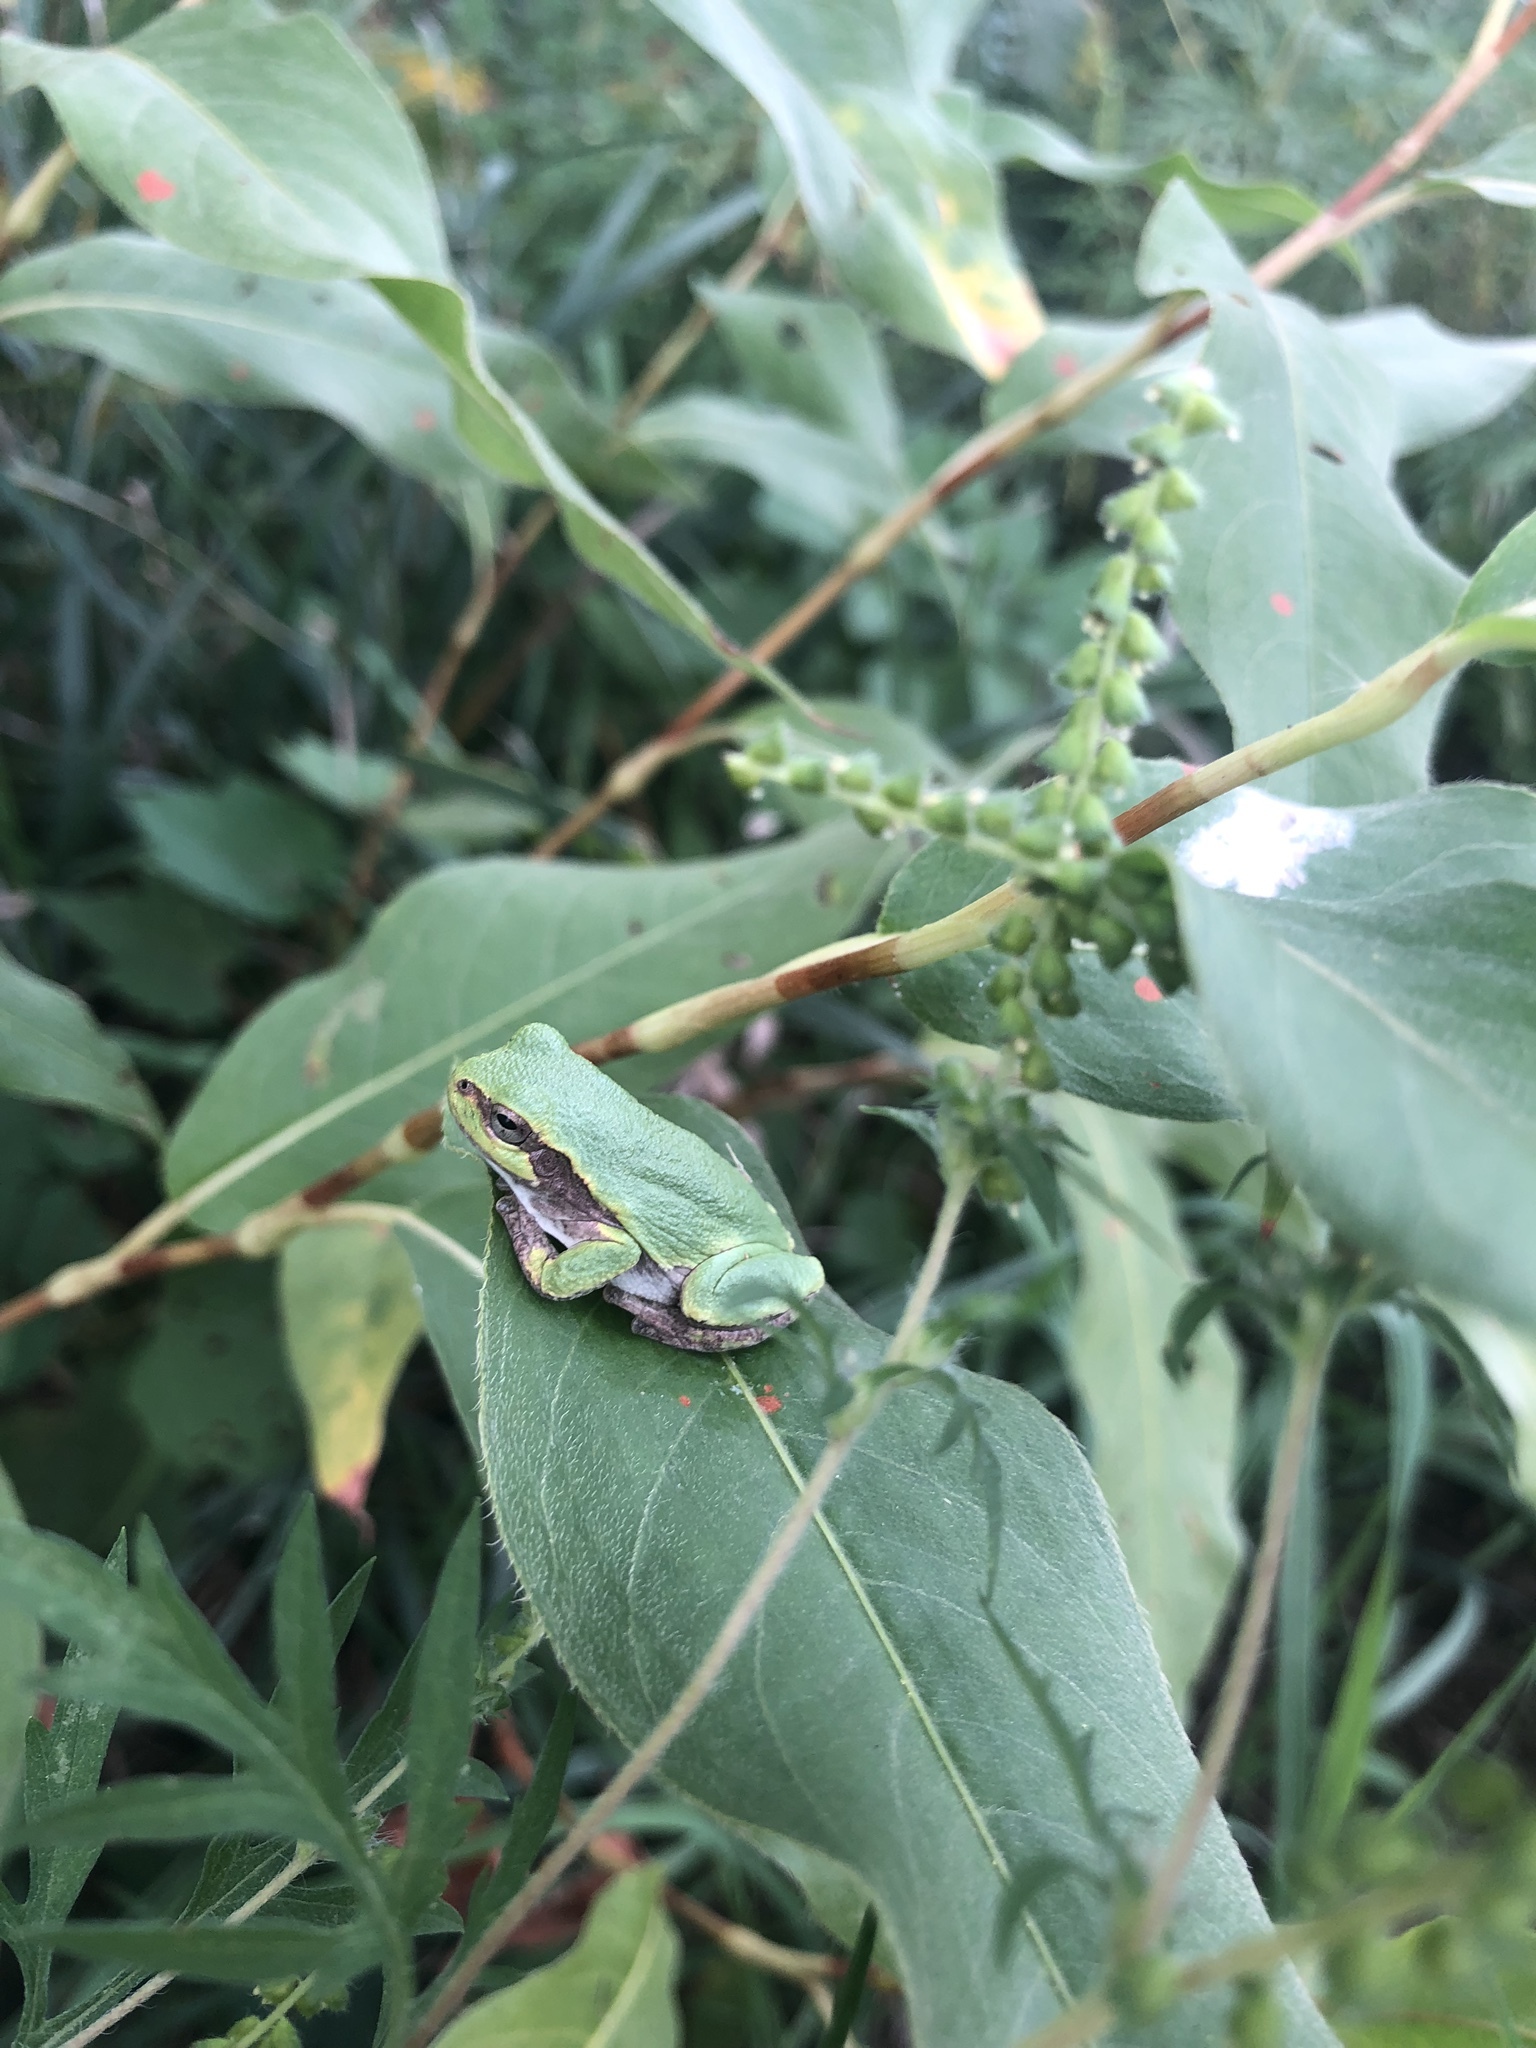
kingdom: Animalia
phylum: Chordata
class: Amphibia
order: Anura
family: Hylidae
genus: Hyla
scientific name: Hyla
